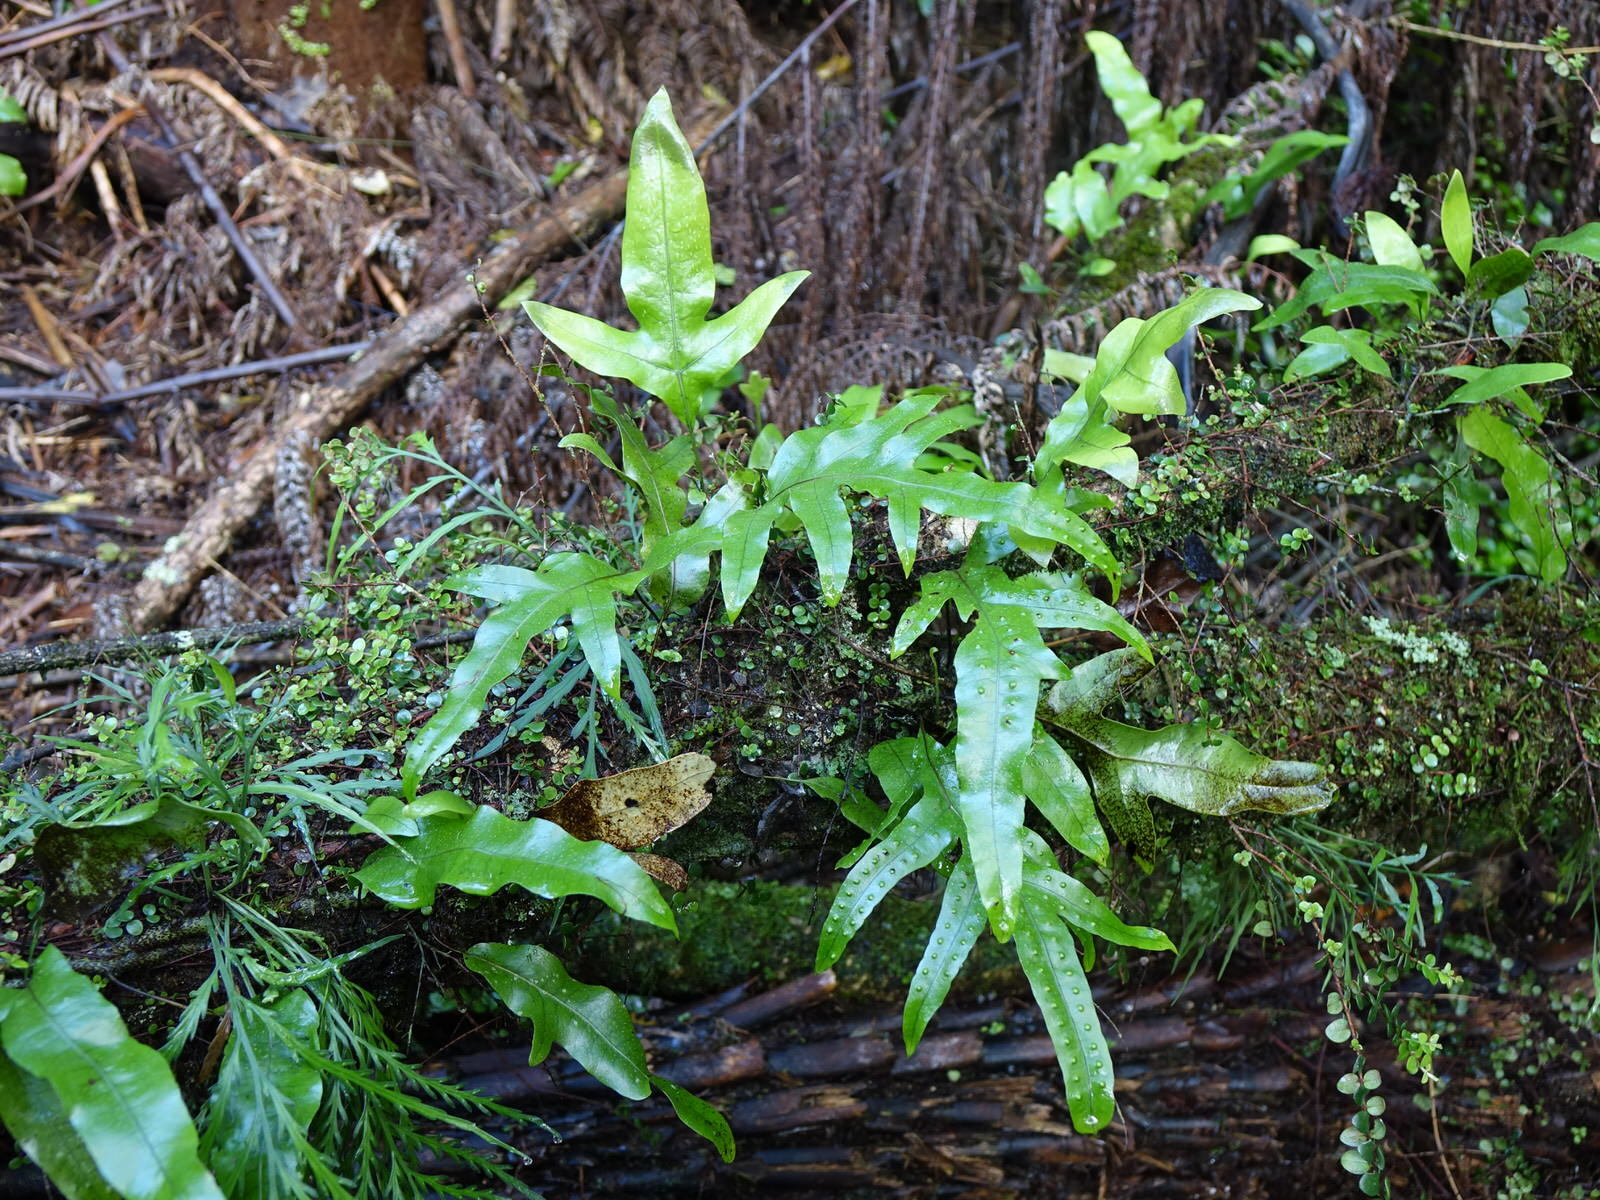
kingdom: Plantae
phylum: Tracheophyta
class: Polypodiopsida
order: Polypodiales
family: Polypodiaceae
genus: Lecanopteris
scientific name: Lecanopteris pustulata
